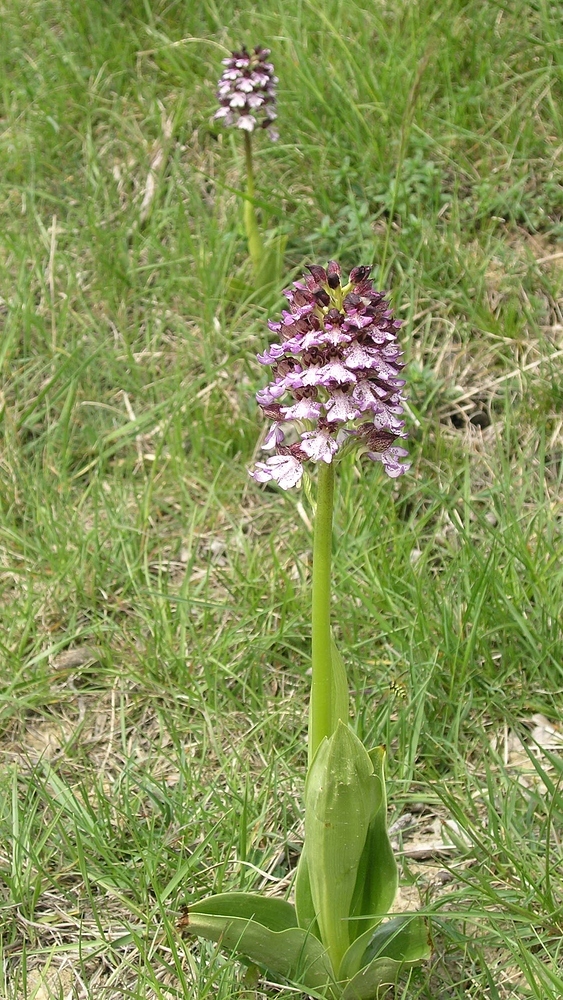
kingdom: Plantae
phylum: Tracheophyta
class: Liliopsida
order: Asparagales
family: Orchidaceae
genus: Orchis
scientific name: Orchis purpurea
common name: Lady orchid
